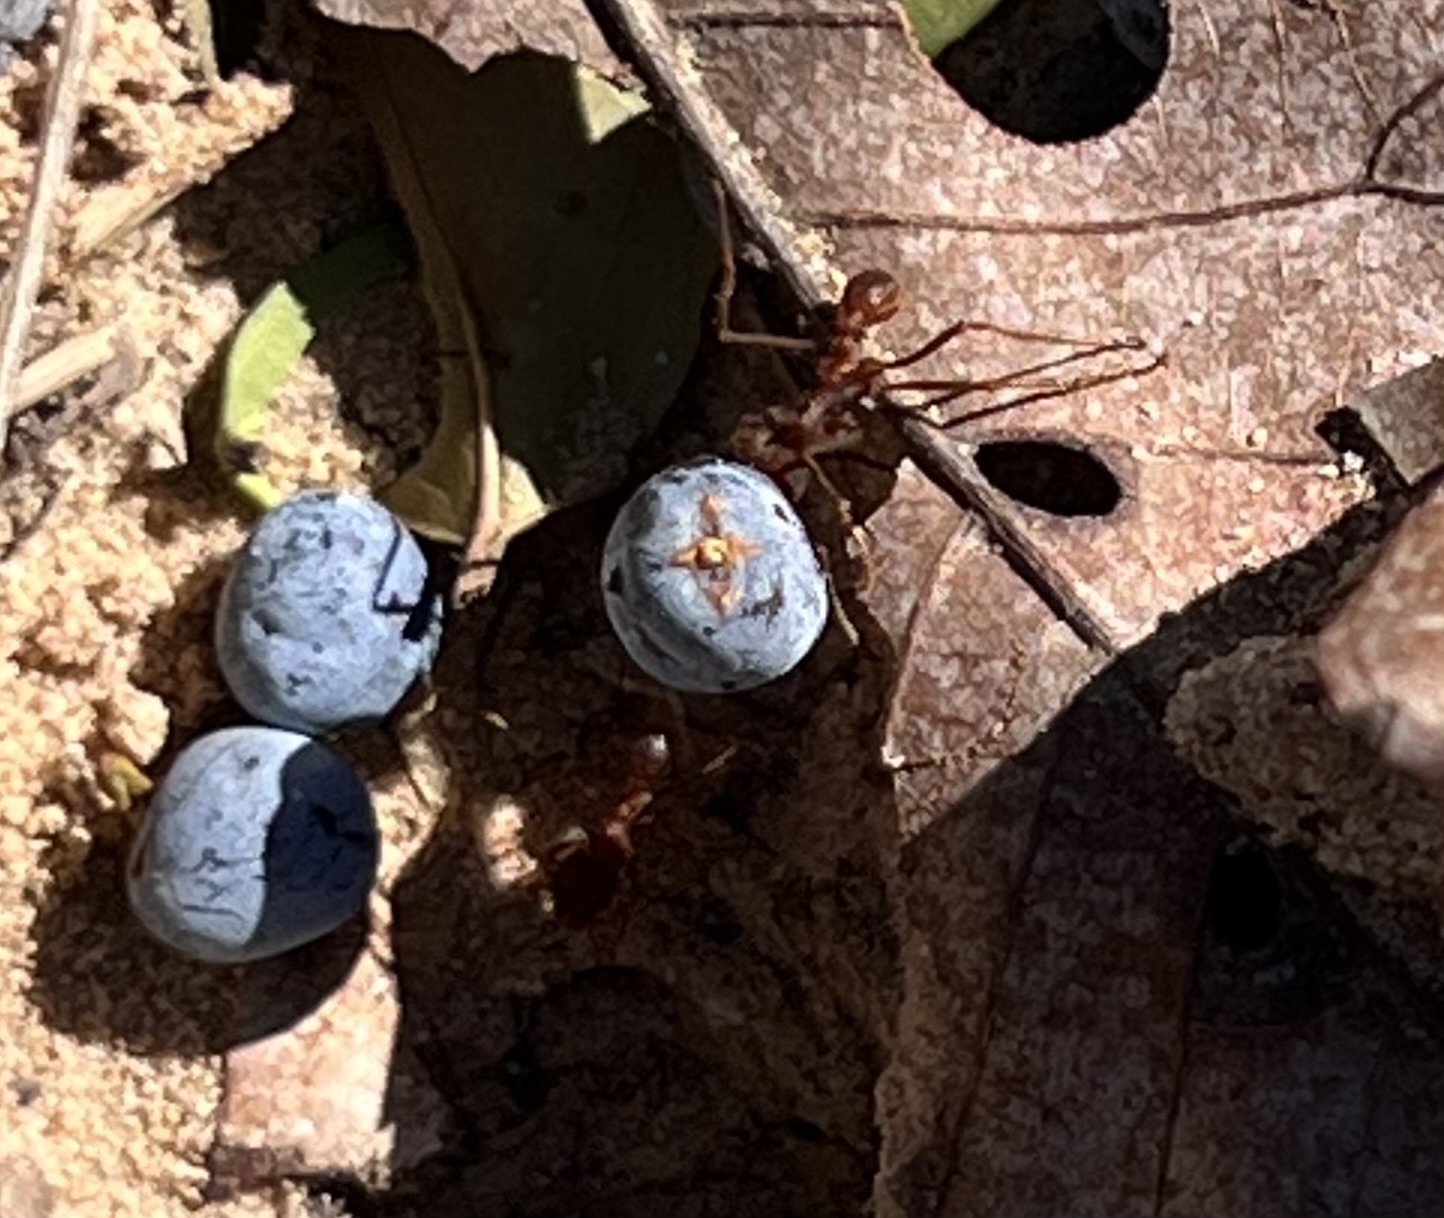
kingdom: Animalia
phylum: Arthropoda
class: Insecta
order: Hymenoptera
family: Formicidae
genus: Atta
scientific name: Atta texana
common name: Texas leafcutting ant
